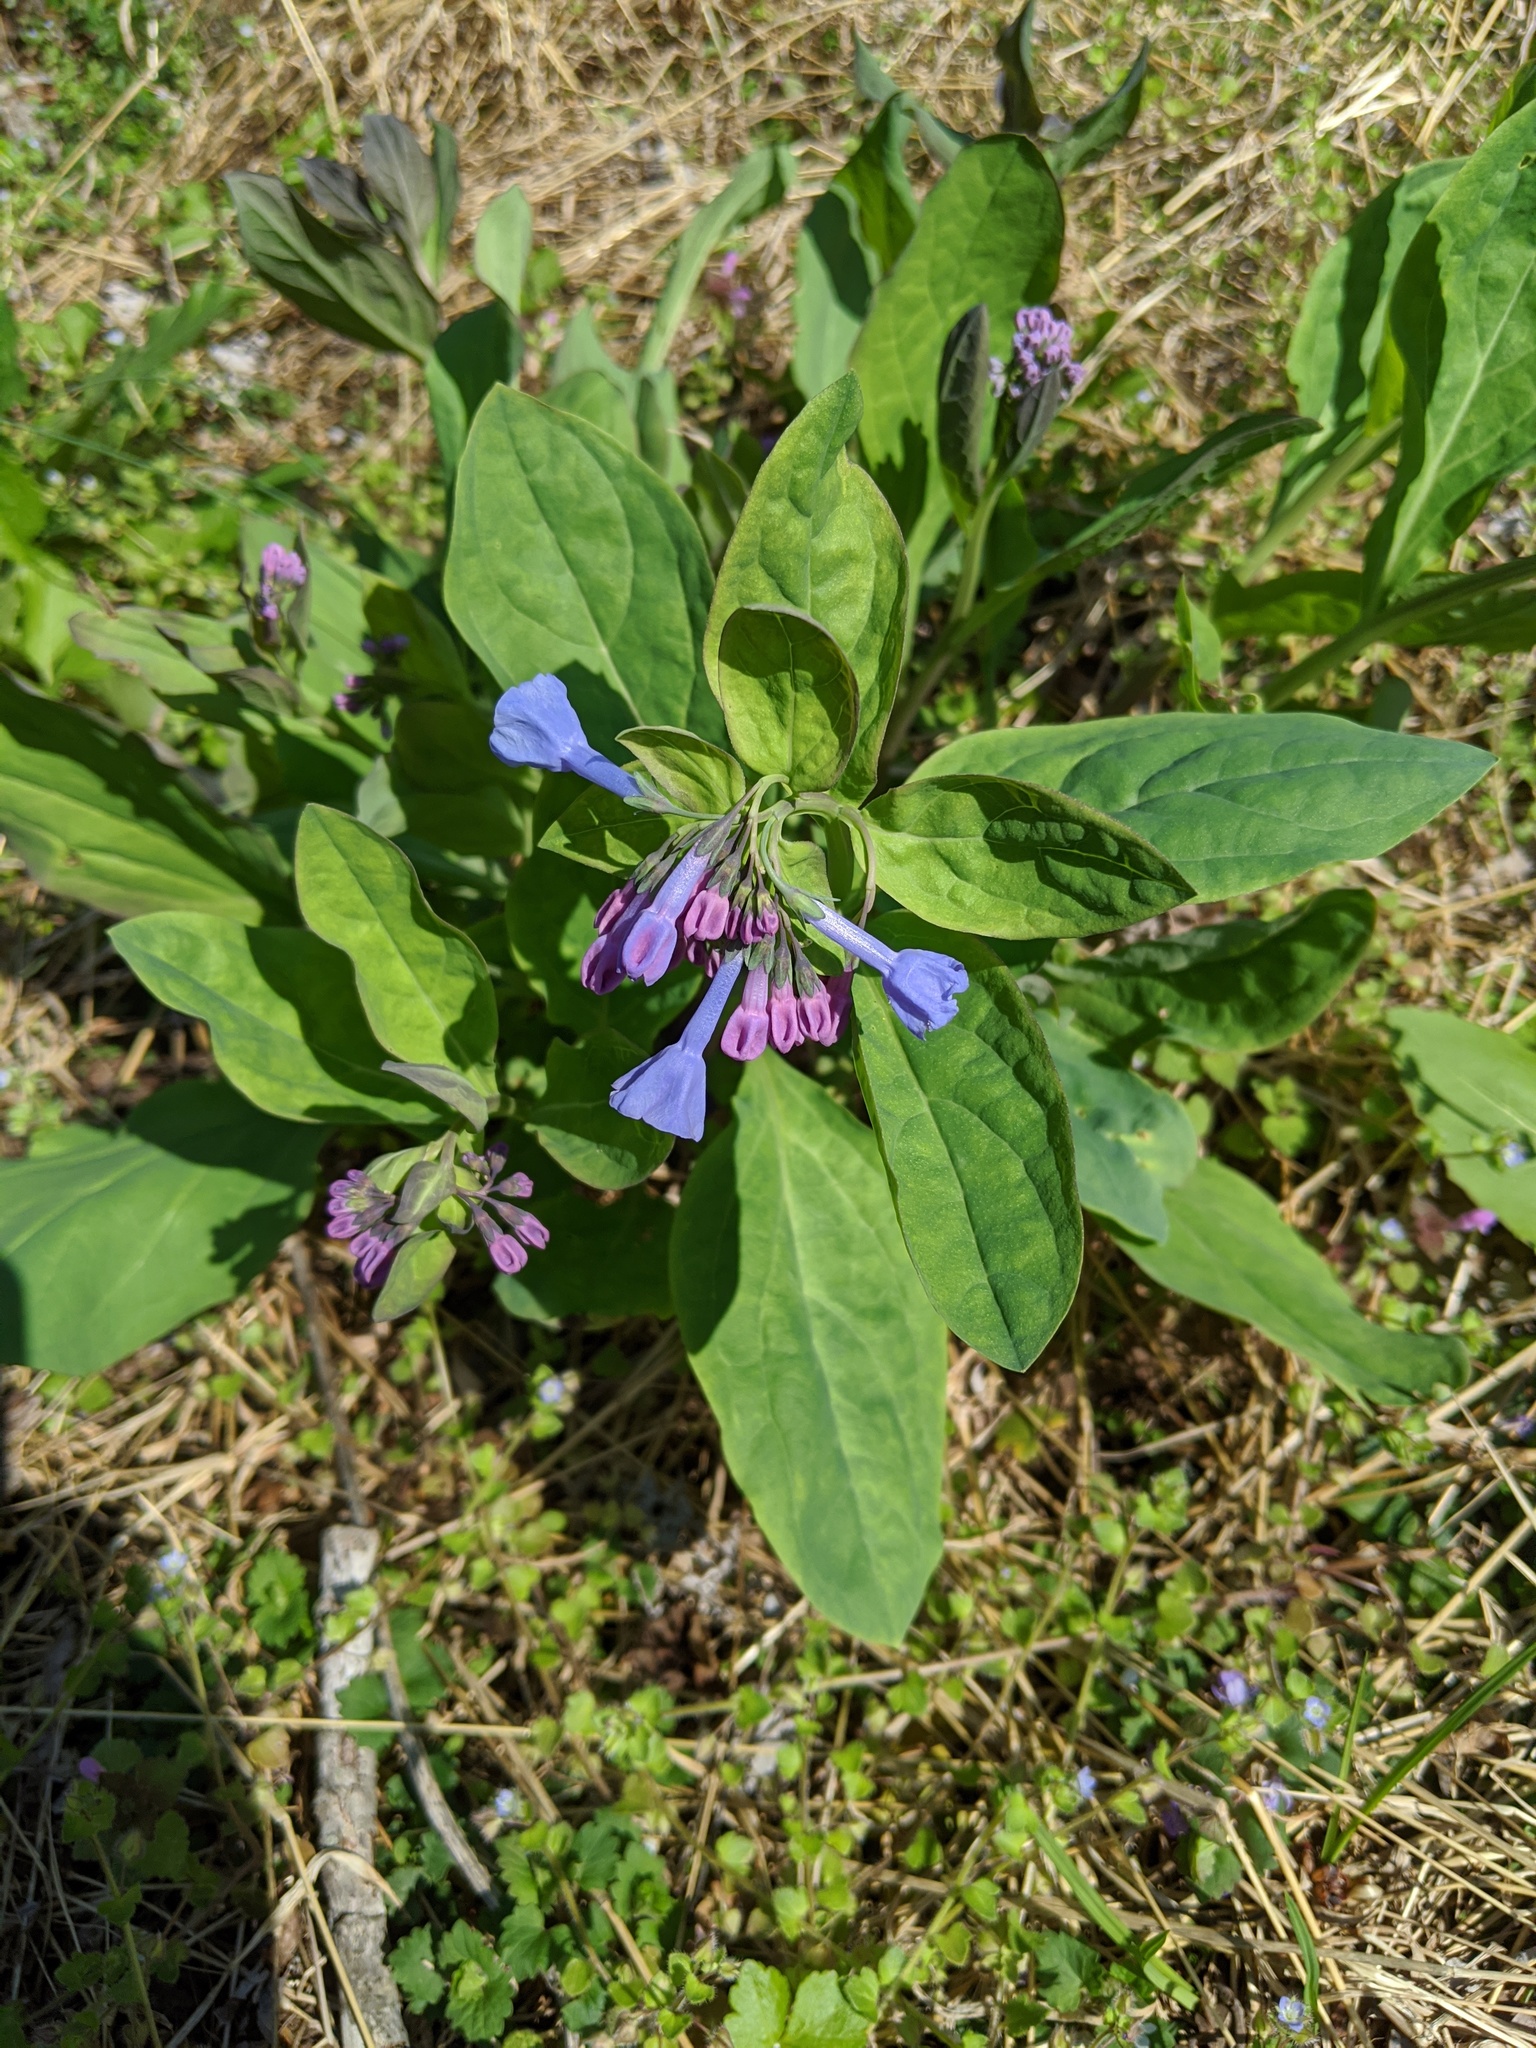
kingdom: Plantae
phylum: Tracheophyta
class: Magnoliopsida
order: Boraginales
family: Boraginaceae
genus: Mertensia
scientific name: Mertensia virginica
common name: Virginia bluebells
